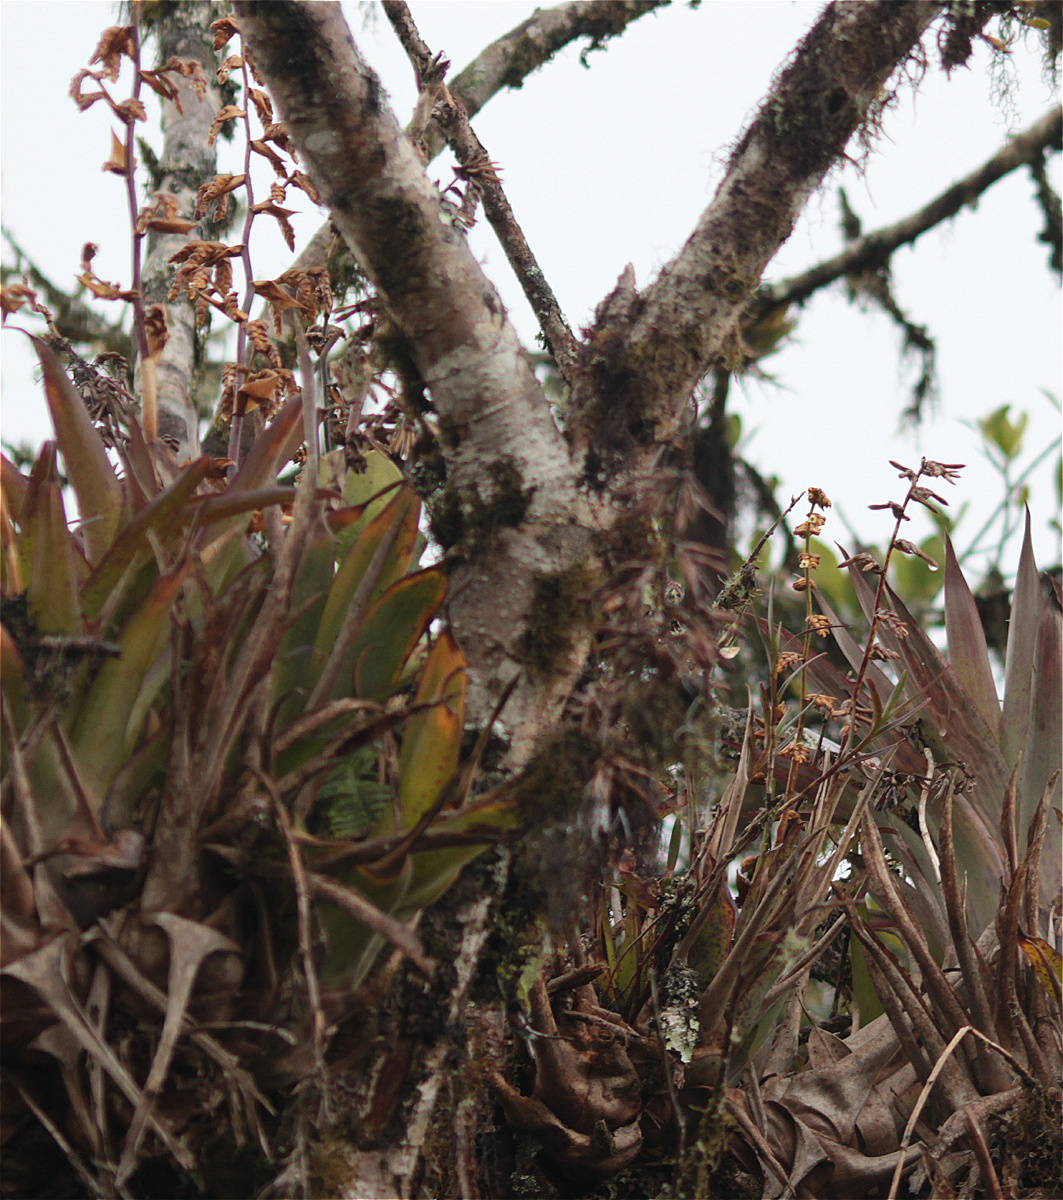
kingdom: Plantae
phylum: Tracheophyta
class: Liliopsida
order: Poales
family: Bromeliaceae
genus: Racinaea
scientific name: Racinaea subalata
